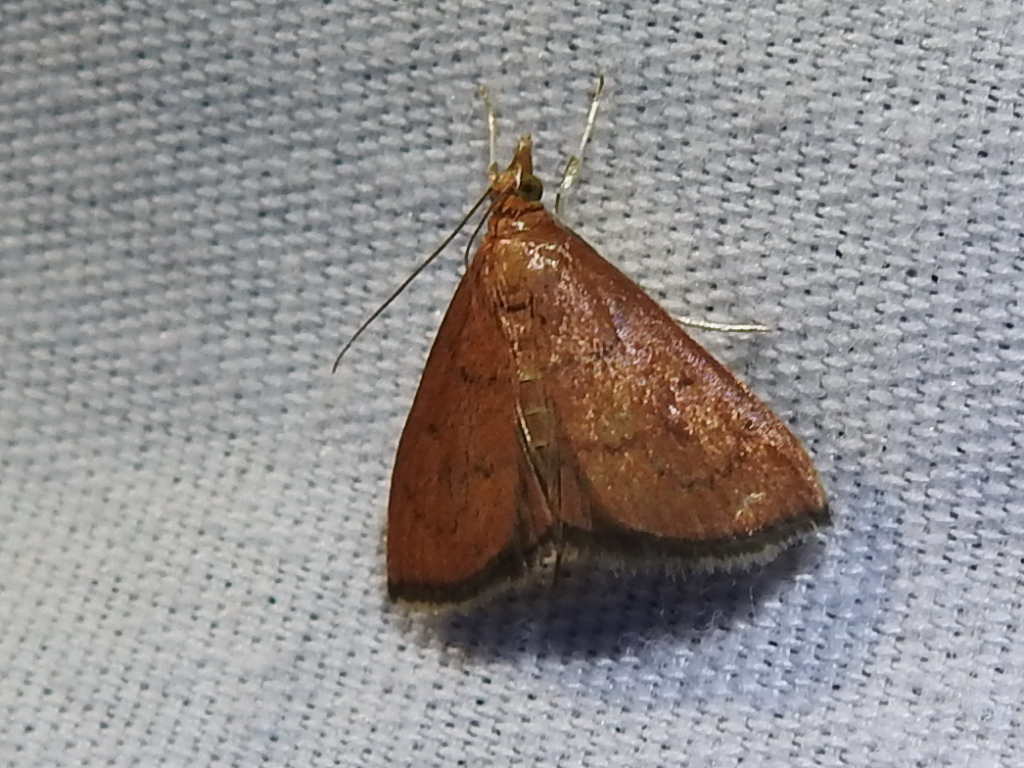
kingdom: Animalia
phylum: Arthropoda
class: Insecta
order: Lepidoptera
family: Crambidae
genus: Oenobotys
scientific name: Oenobotys vinotinctalis
